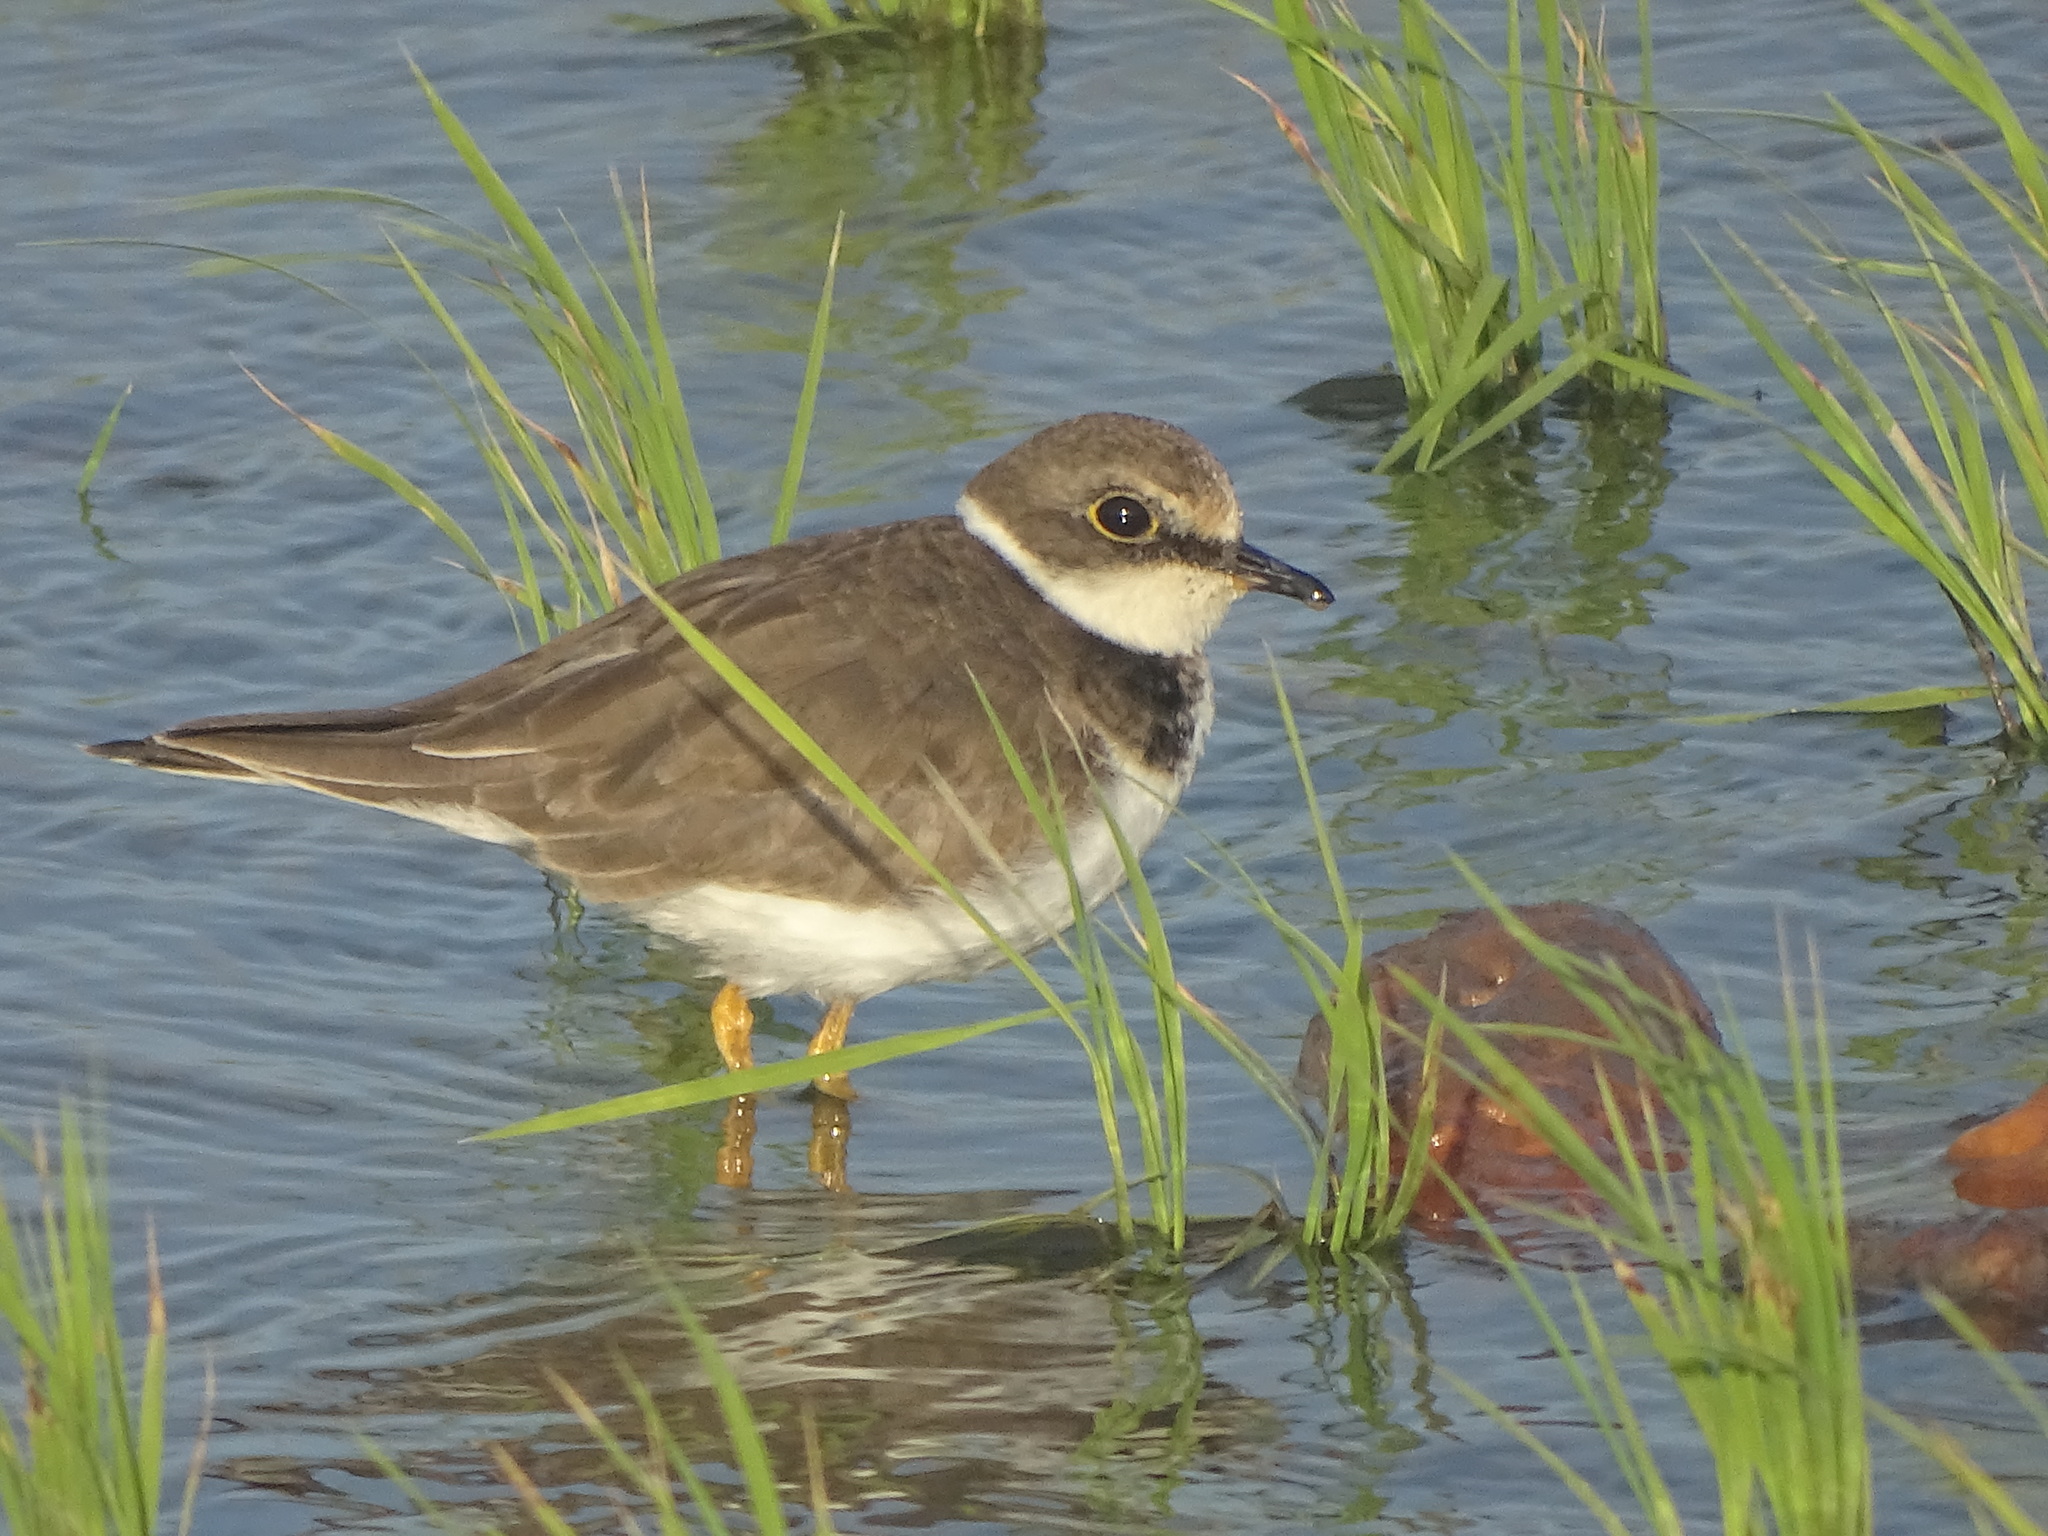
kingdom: Animalia
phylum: Chordata
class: Aves
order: Charadriiformes
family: Charadriidae
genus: Charadrius
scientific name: Charadrius dubius
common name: Little ringed plover
